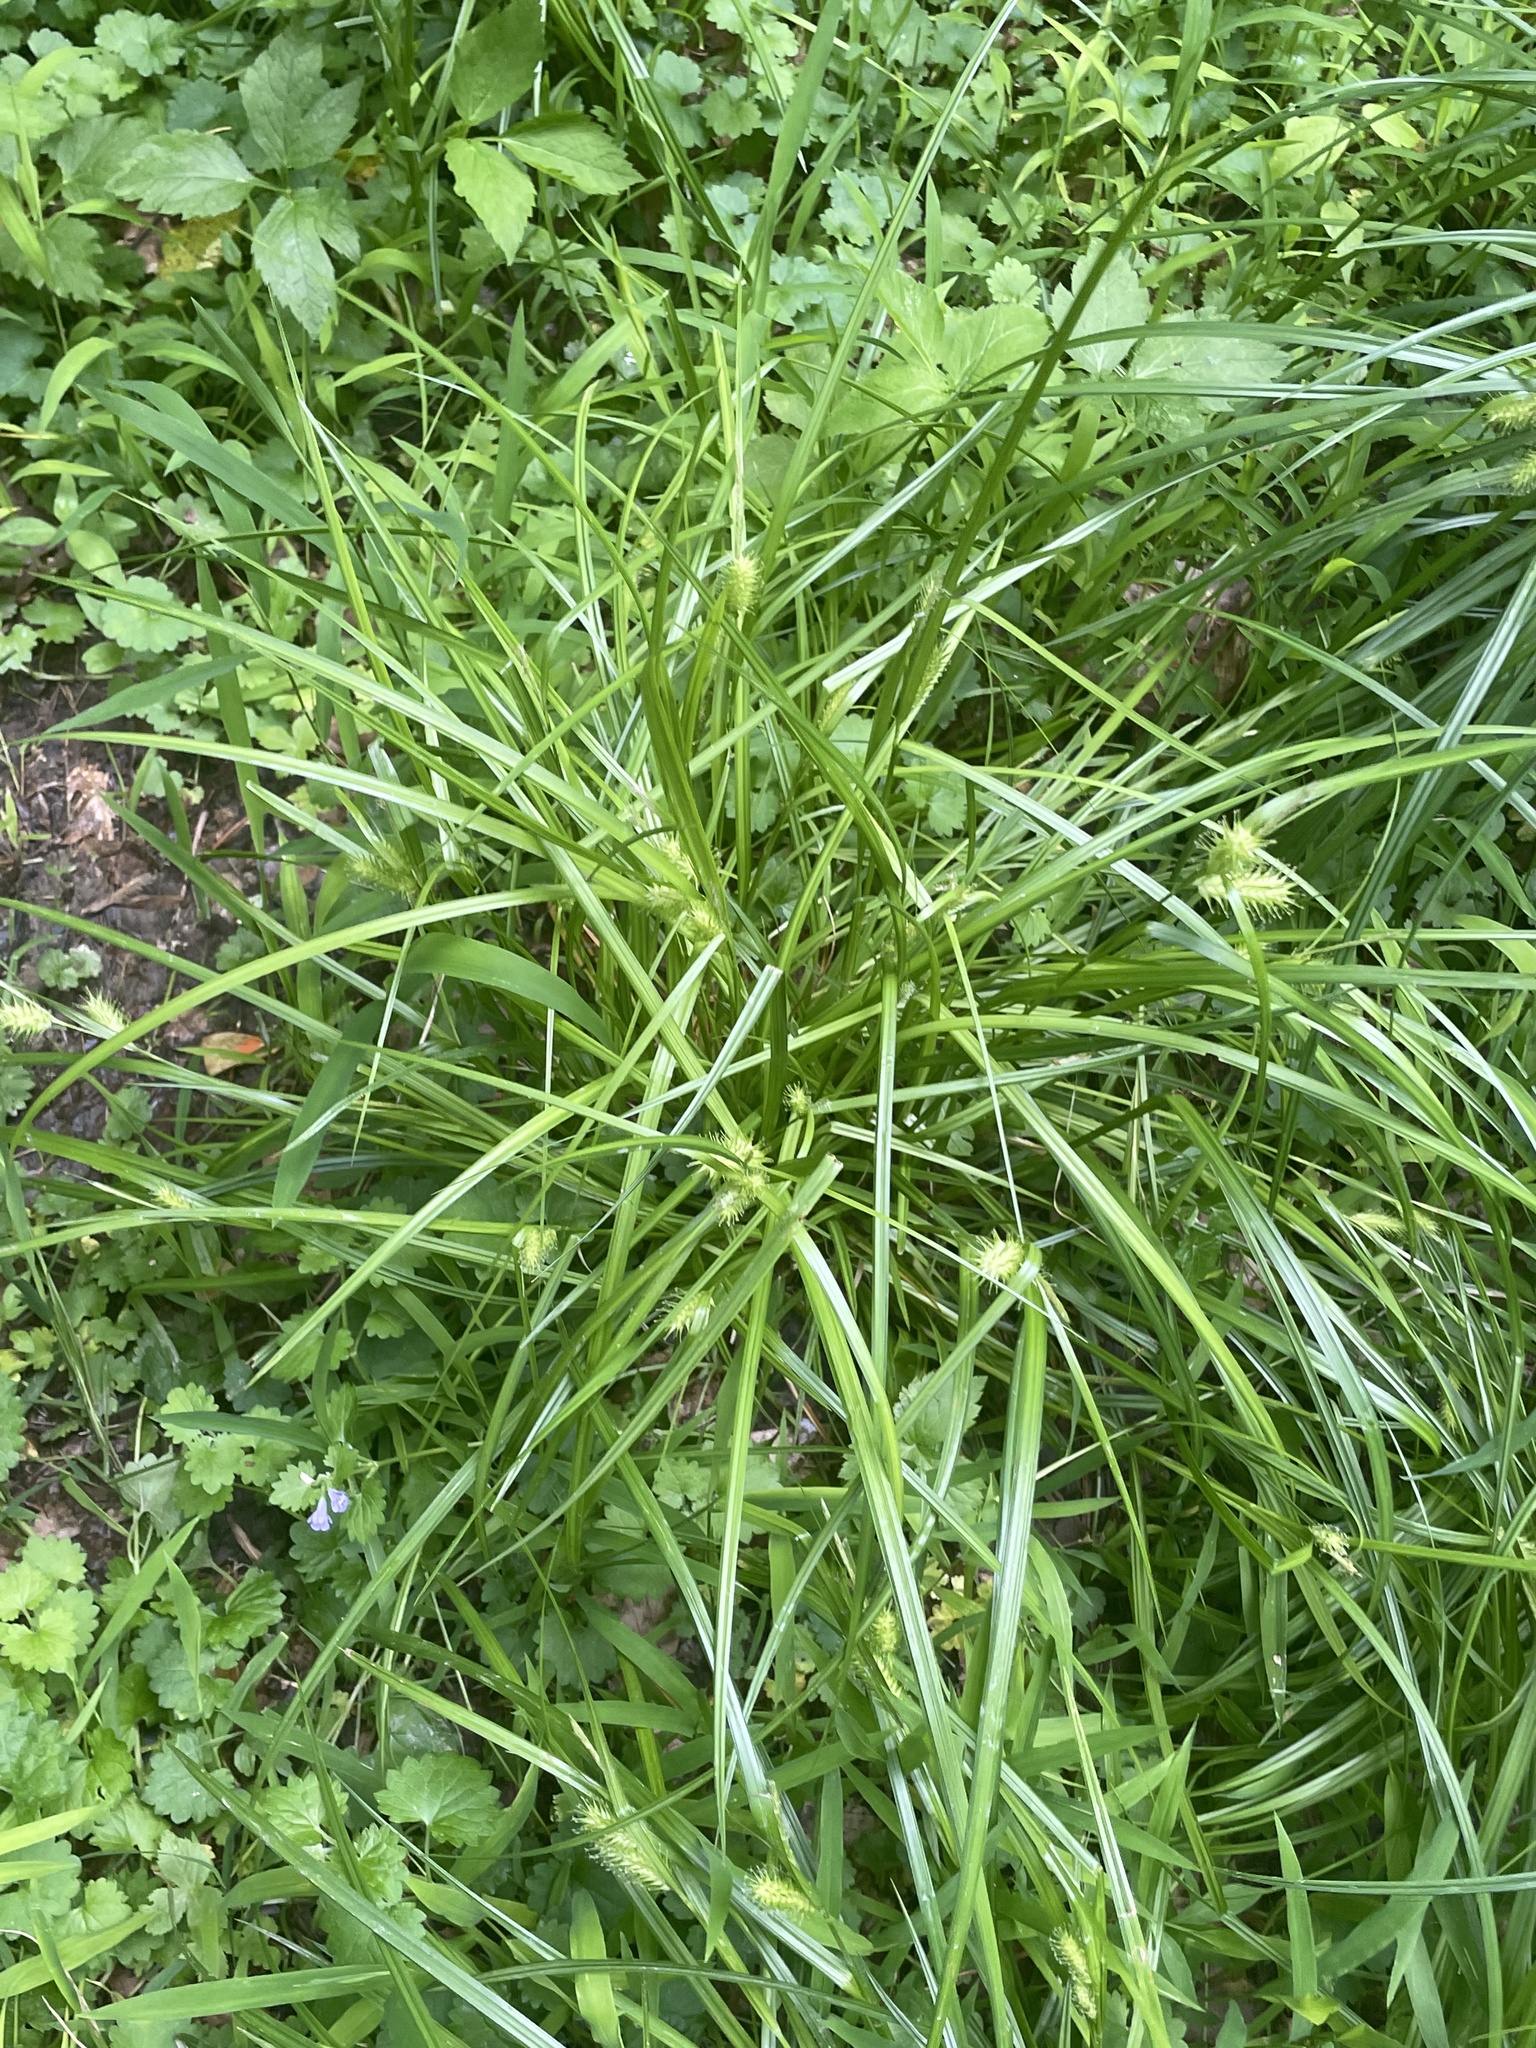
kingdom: Plantae
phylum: Tracheophyta
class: Liliopsida
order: Poales
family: Cyperaceae
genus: Carex
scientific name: Carex lurida
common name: Sallow sedge
